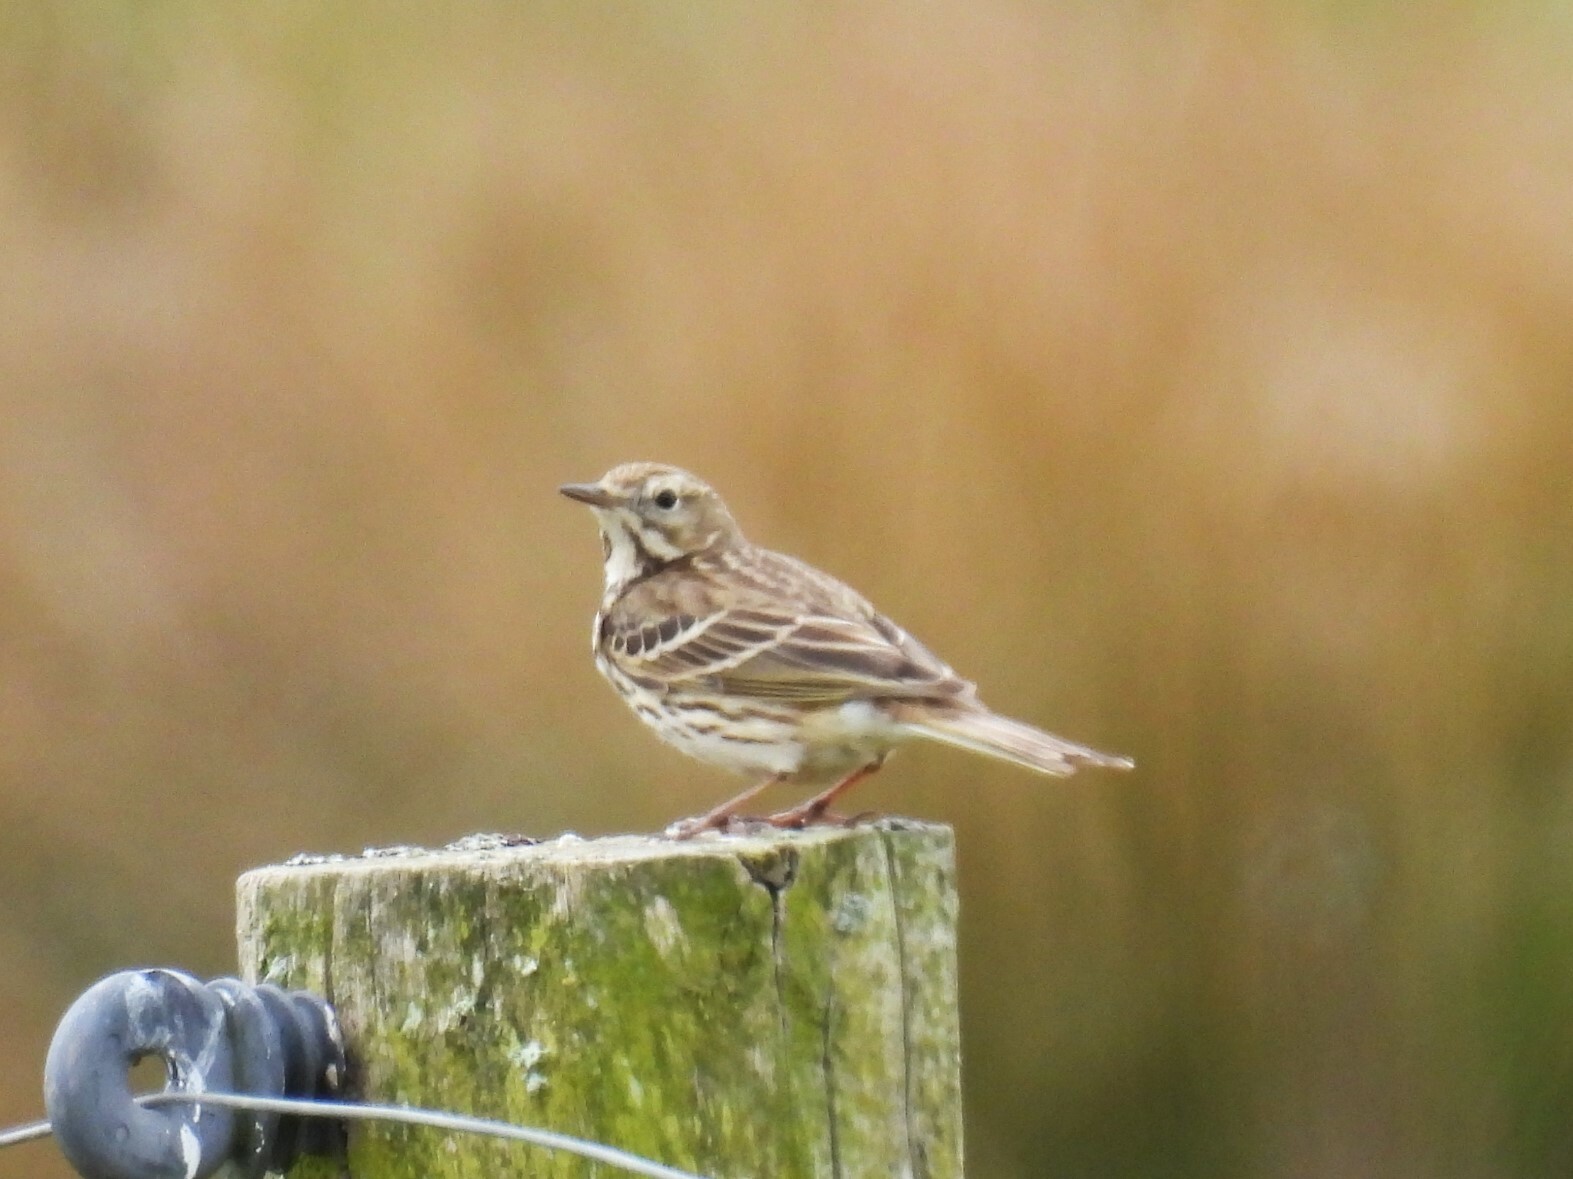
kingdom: Animalia
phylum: Chordata
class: Aves
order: Passeriformes
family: Motacillidae
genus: Anthus
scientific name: Anthus pratensis
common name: Meadow pipit
